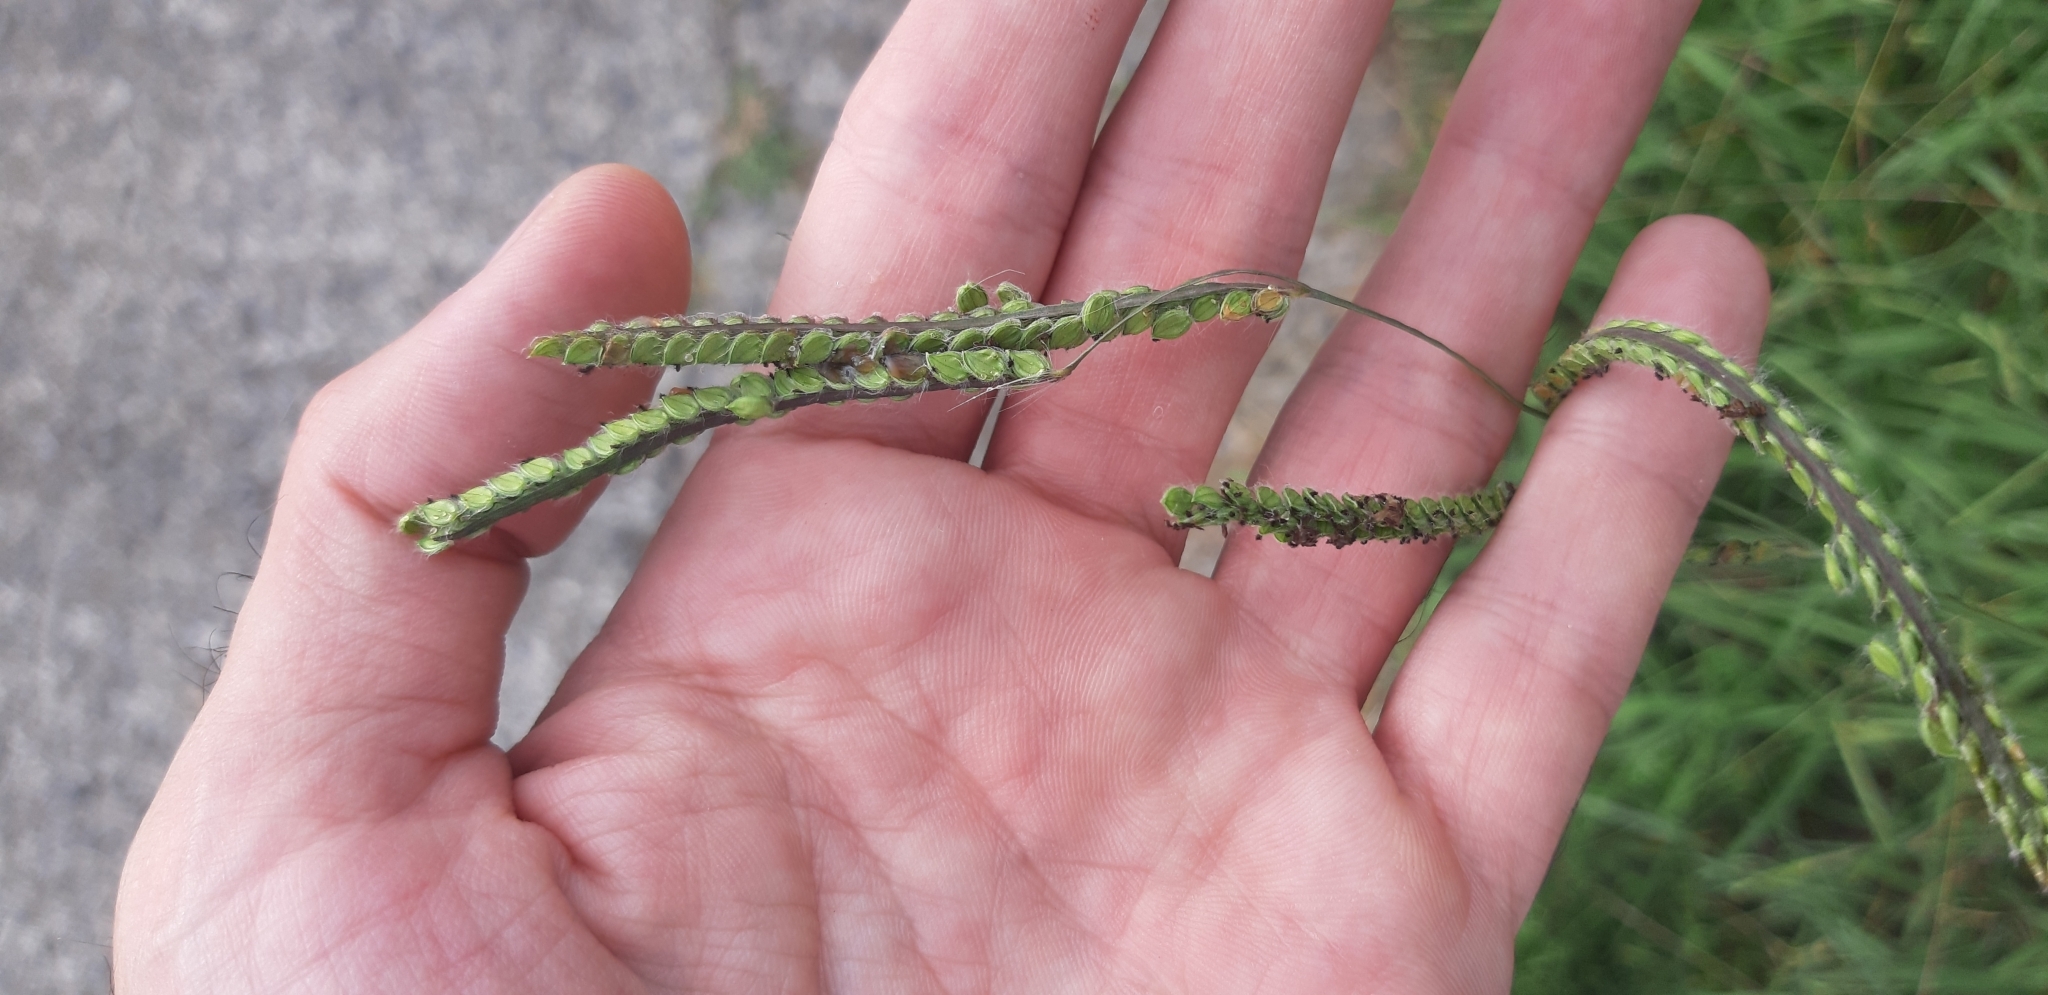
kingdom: Plantae
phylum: Tracheophyta
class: Liliopsida
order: Poales
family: Poaceae
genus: Paspalum
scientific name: Paspalum dilatatum
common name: Dallisgrass
